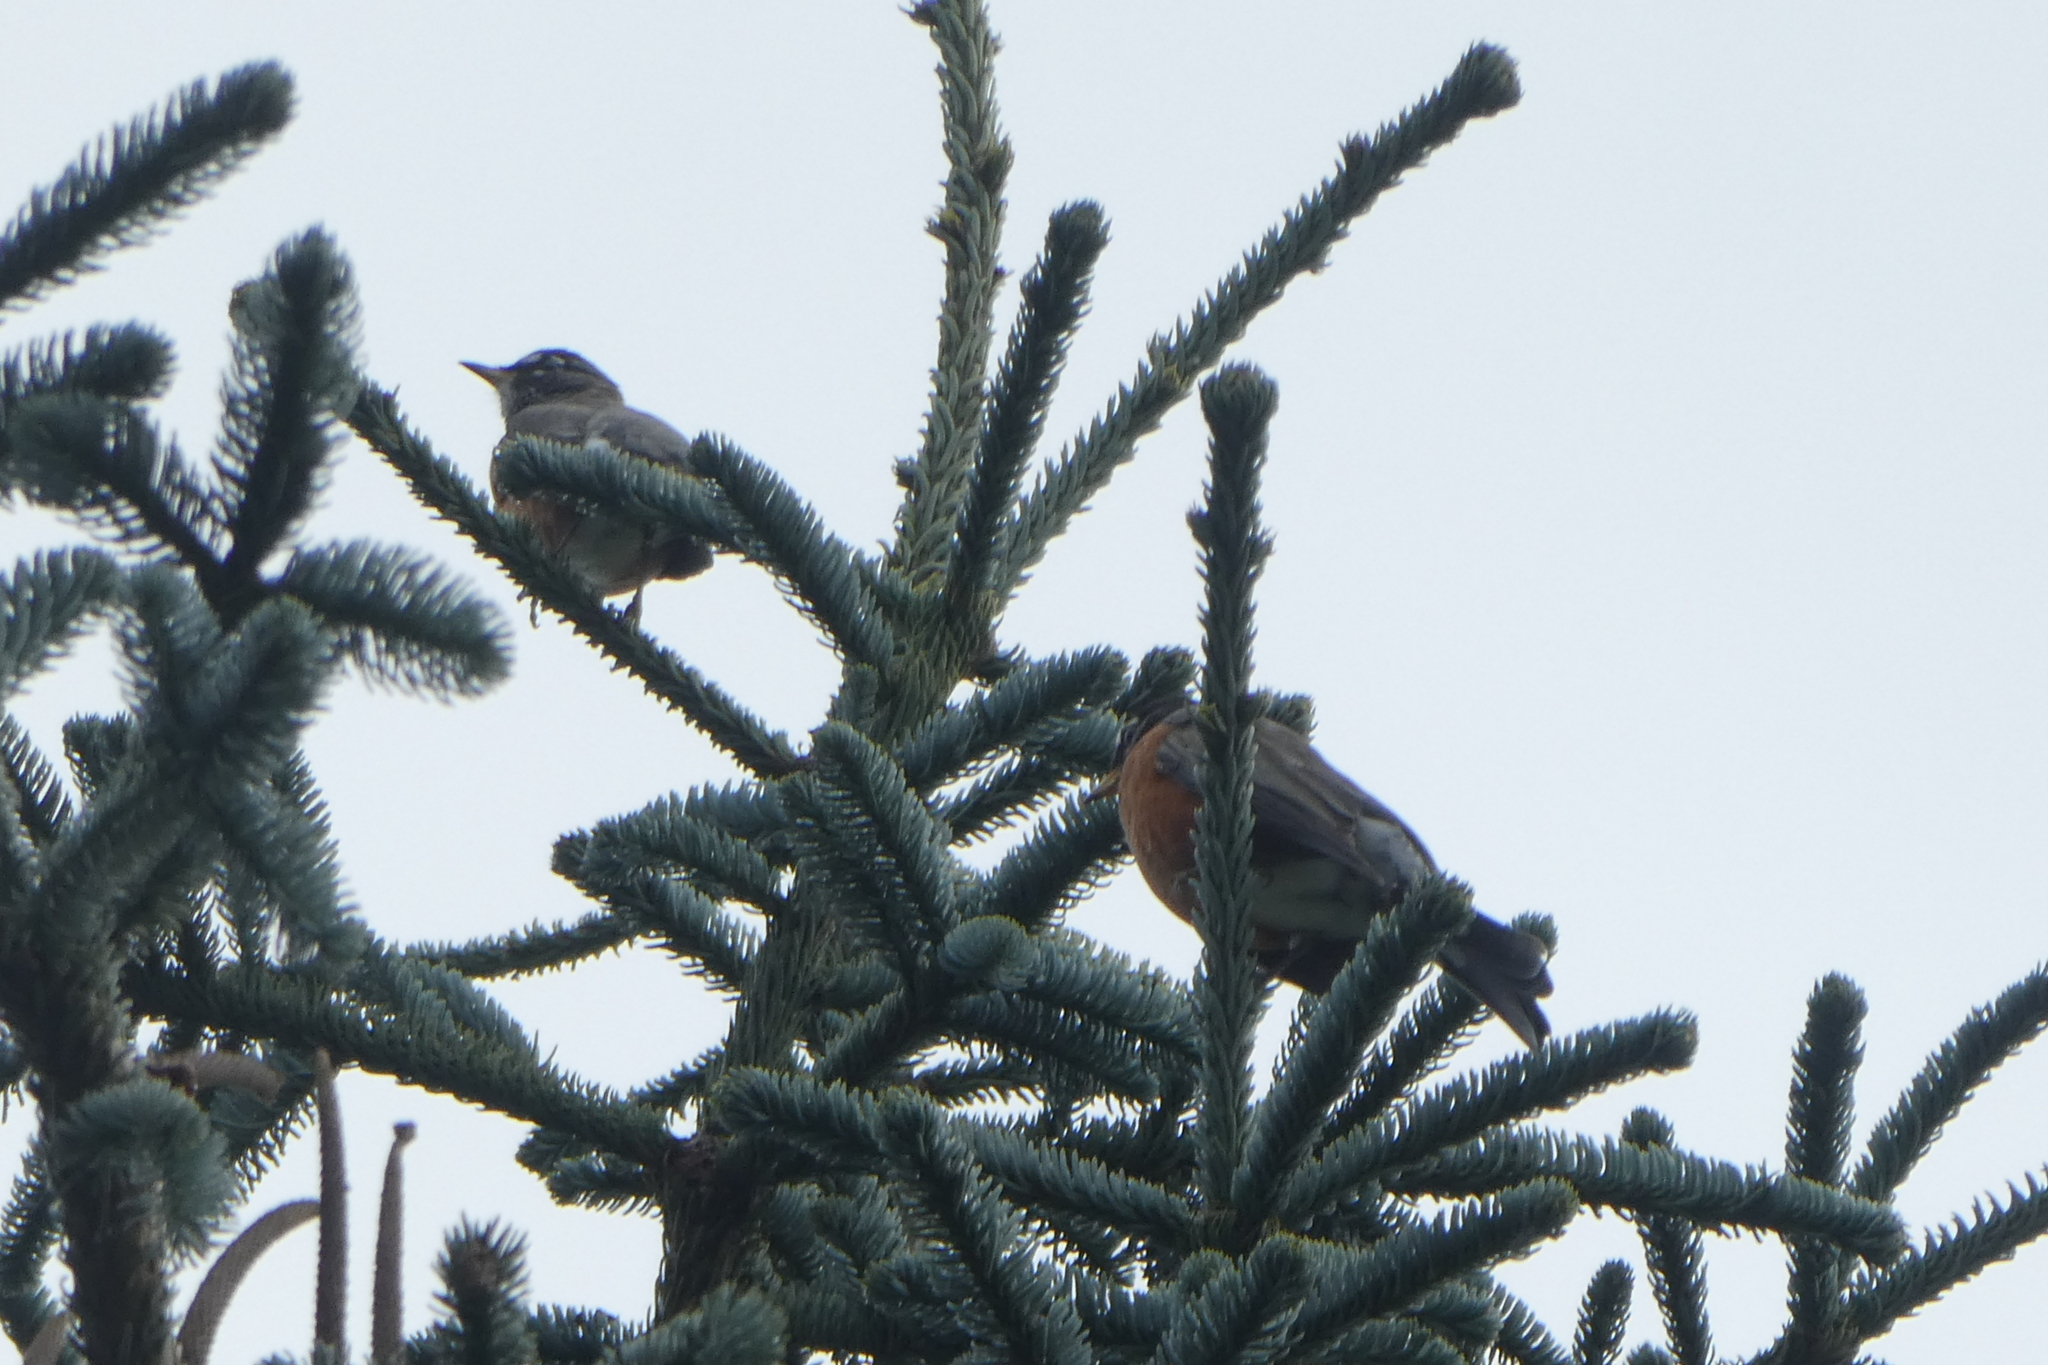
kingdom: Animalia
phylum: Chordata
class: Aves
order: Passeriformes
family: Turdidae
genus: Turdus
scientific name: Turdus migratorius
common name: American robin
